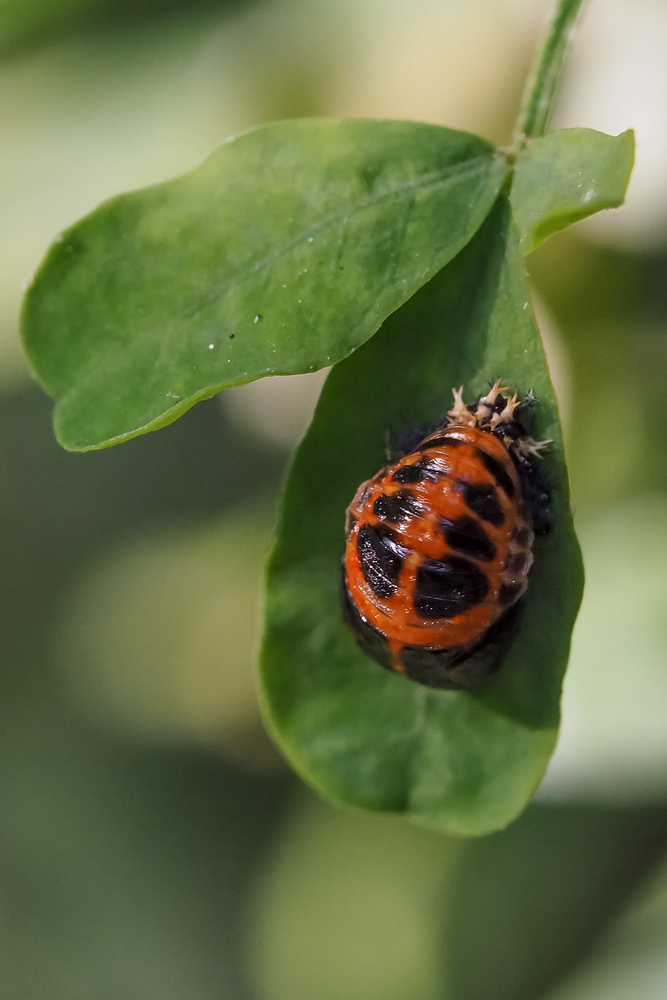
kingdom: Animalia
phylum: Arthropoda
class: Insecta
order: Coleoptera
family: Coccinellidae
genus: Harmonia
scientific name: Harmonia axyridis
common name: Harlequin ladybird
